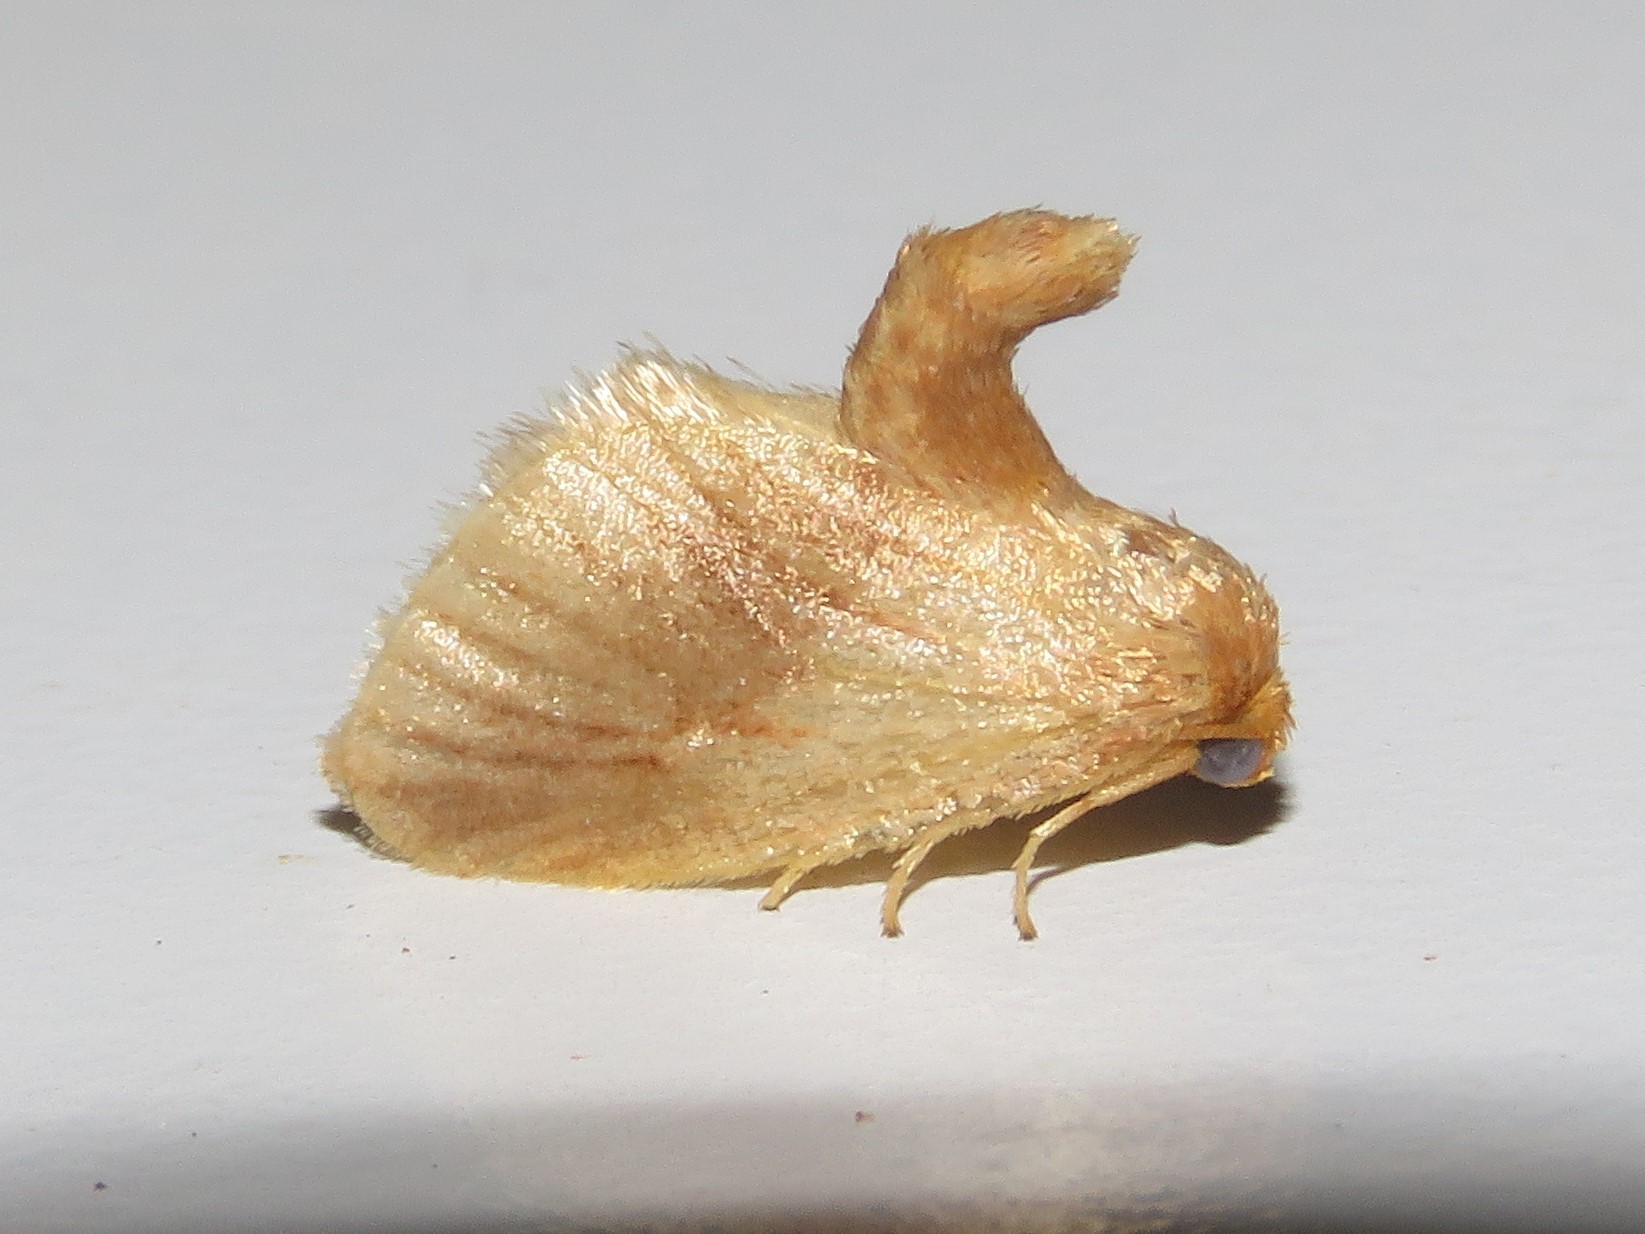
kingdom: Animalia
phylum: Arthropoda
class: Insecta
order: Lepidoptera
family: Limacodidae
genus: Tortricidia
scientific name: Tortricidia testacea
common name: Early button slug moth
